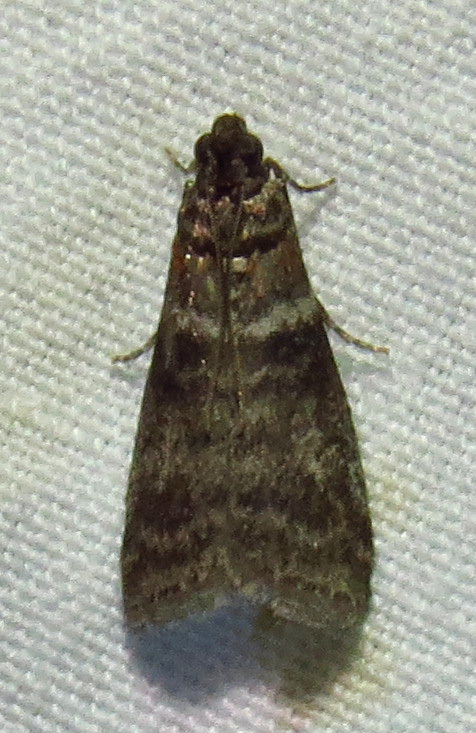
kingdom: Animalia
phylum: Arthropoda
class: Insecta
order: Lepidoptera
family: Pyralidae
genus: Sciota
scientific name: Sciota uvinella
